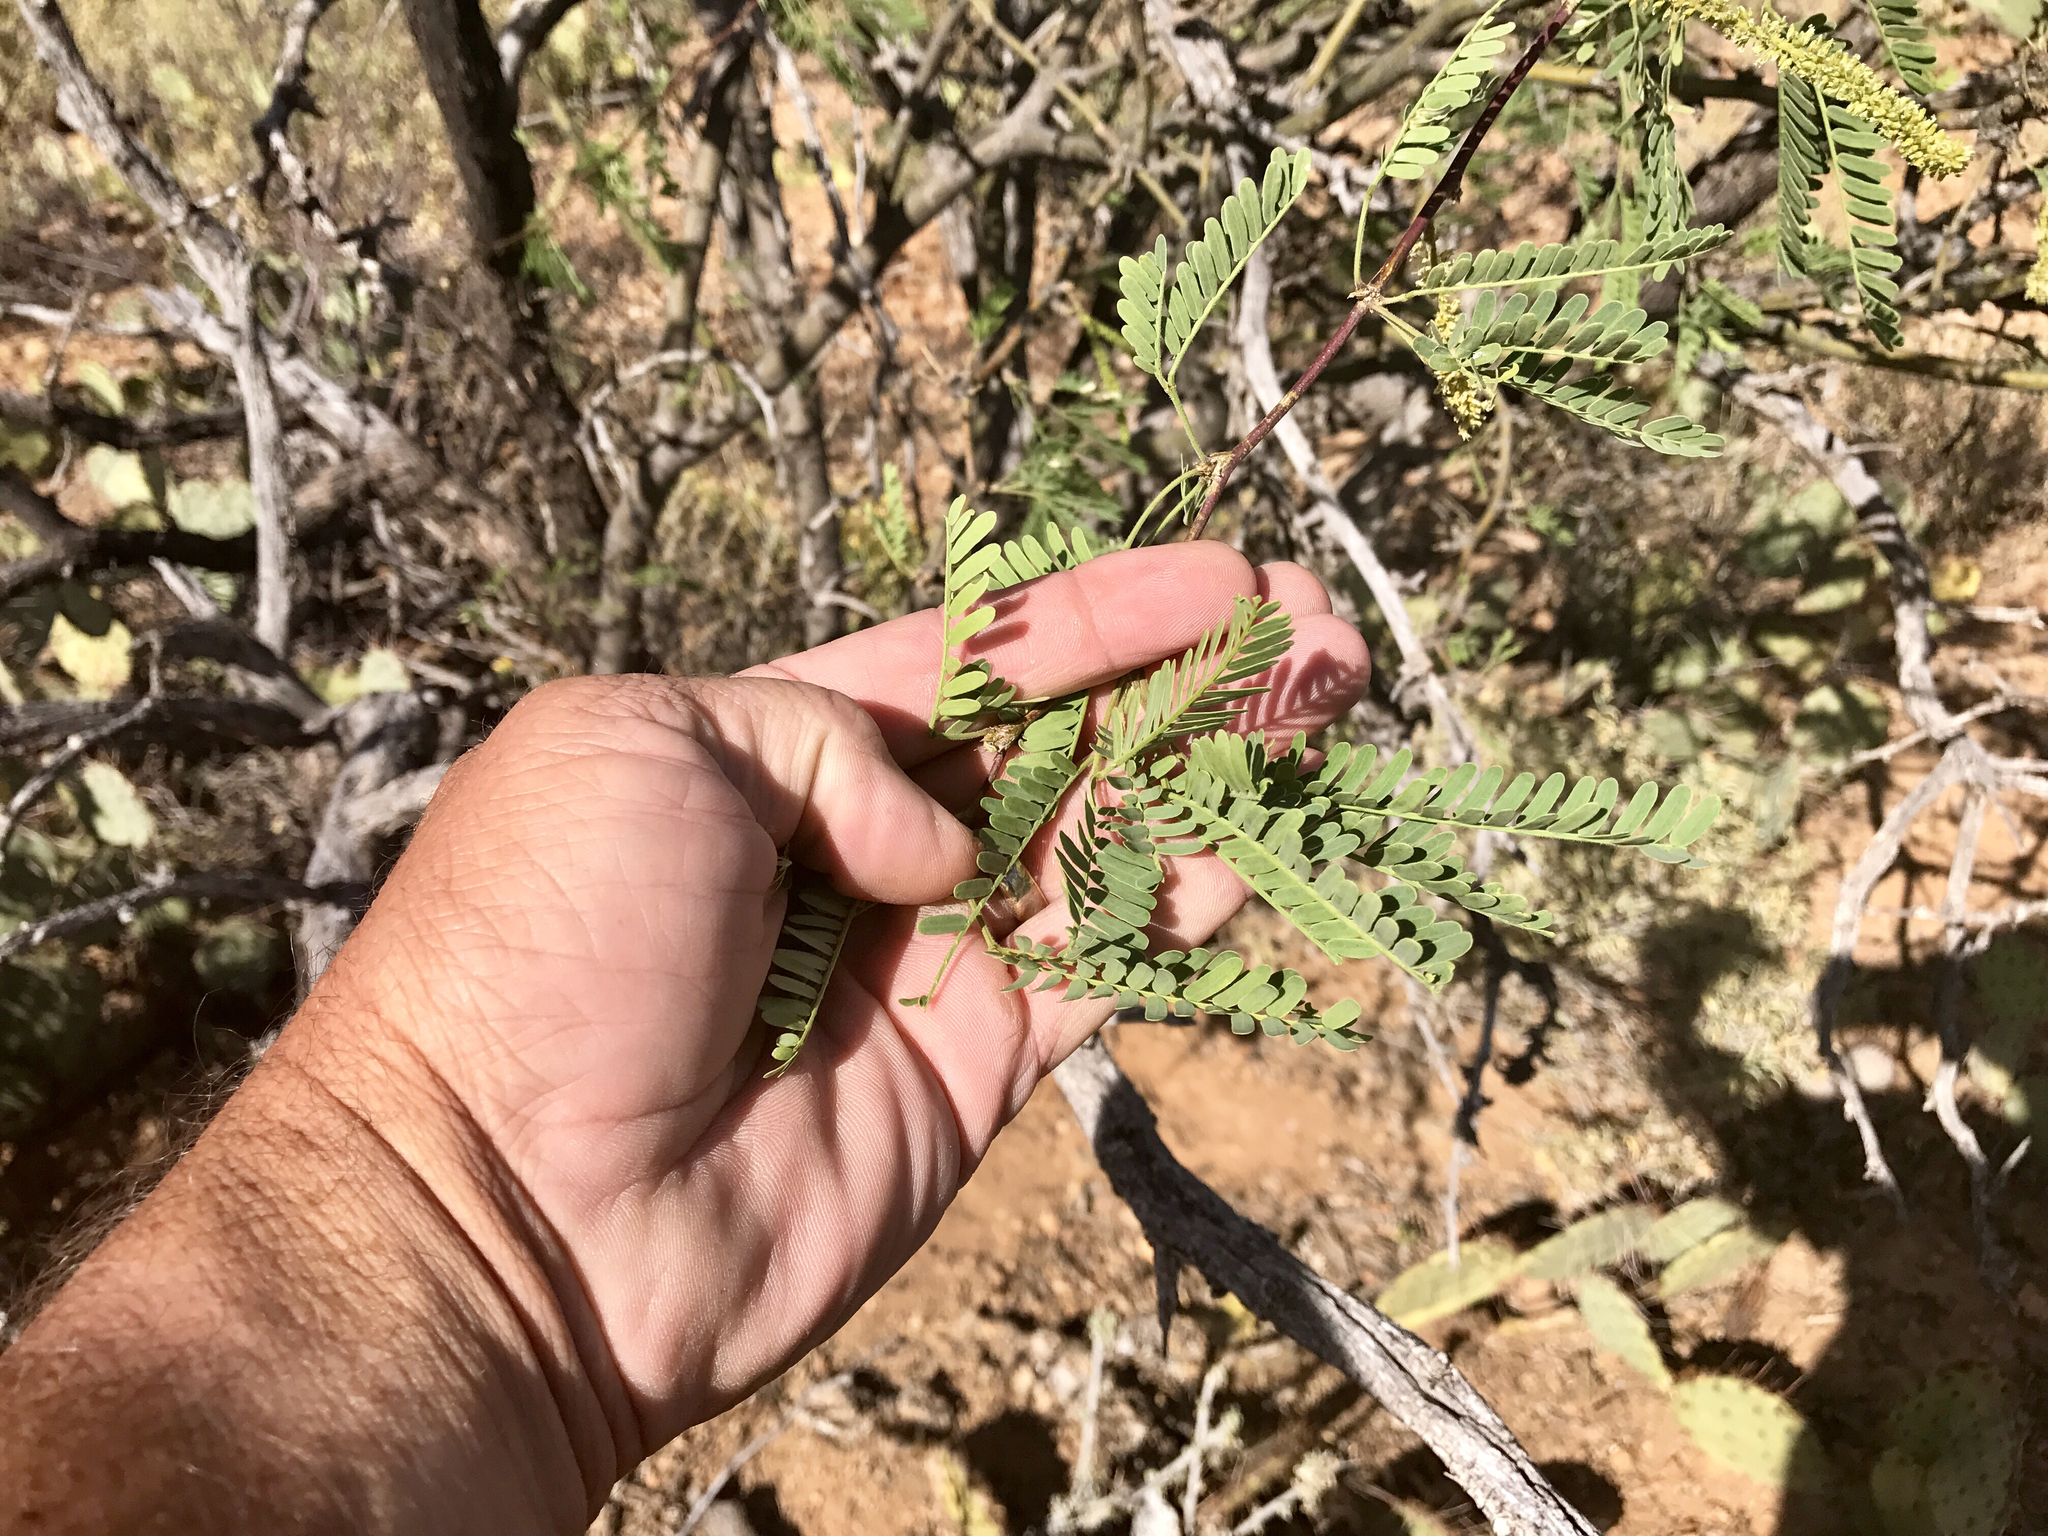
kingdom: Plantae
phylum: Tracheophyta
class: Magnoliopsida
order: Fabales
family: Fabaceae
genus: Prosopis
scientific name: Prosopis velutina
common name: Velvet mesquite
